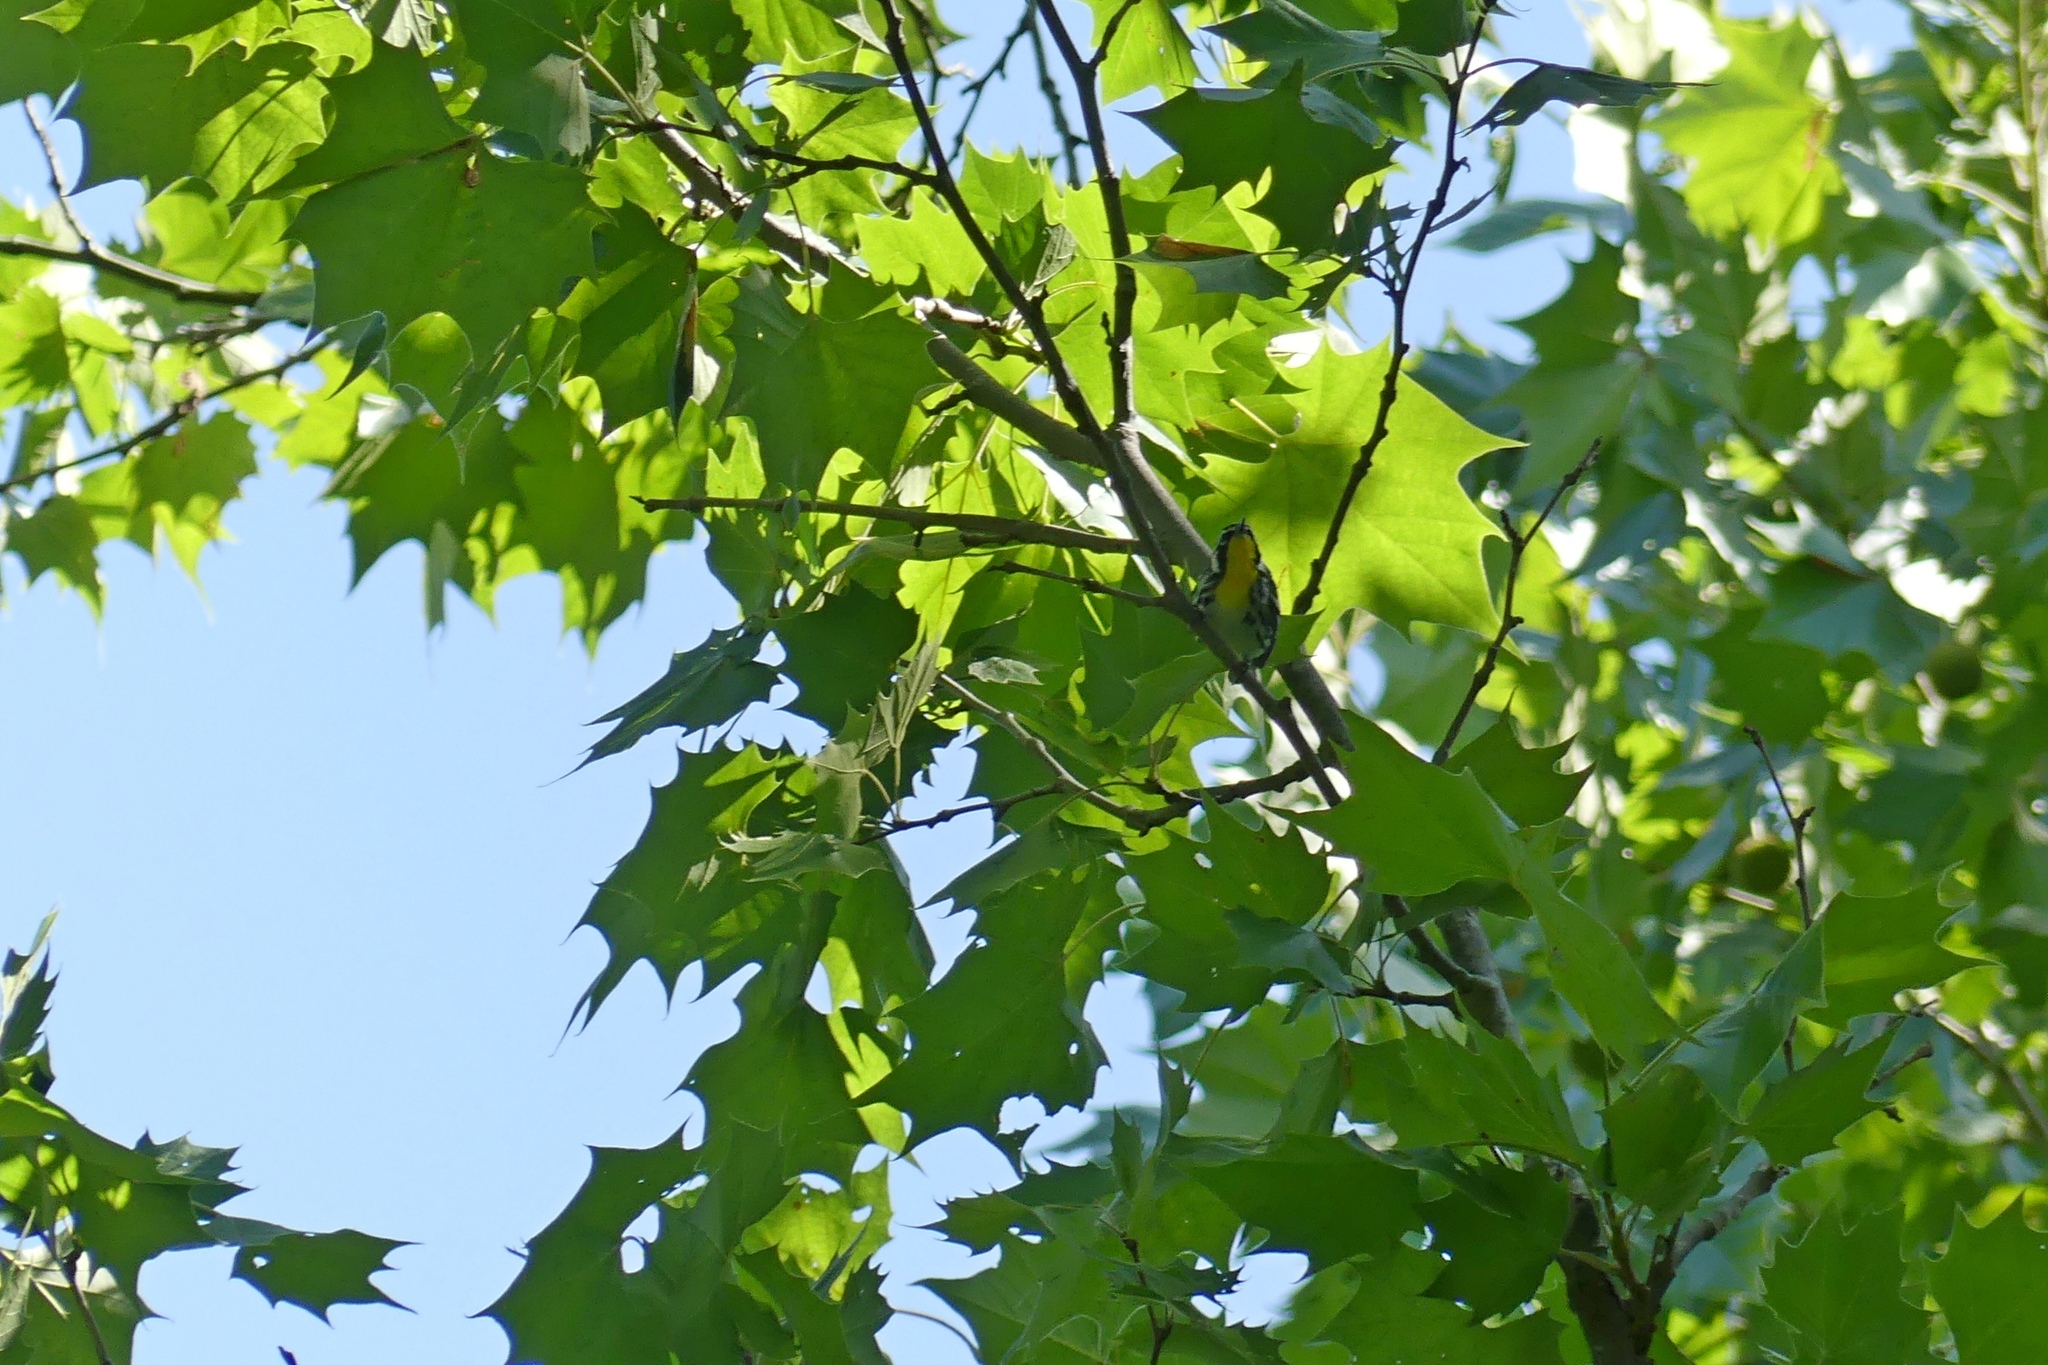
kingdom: Animalia
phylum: Chordata
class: Aves
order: Passeriformes
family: Parulidae
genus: Setophaga
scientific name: Setophaga dominica
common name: Yellow-throated warbler
